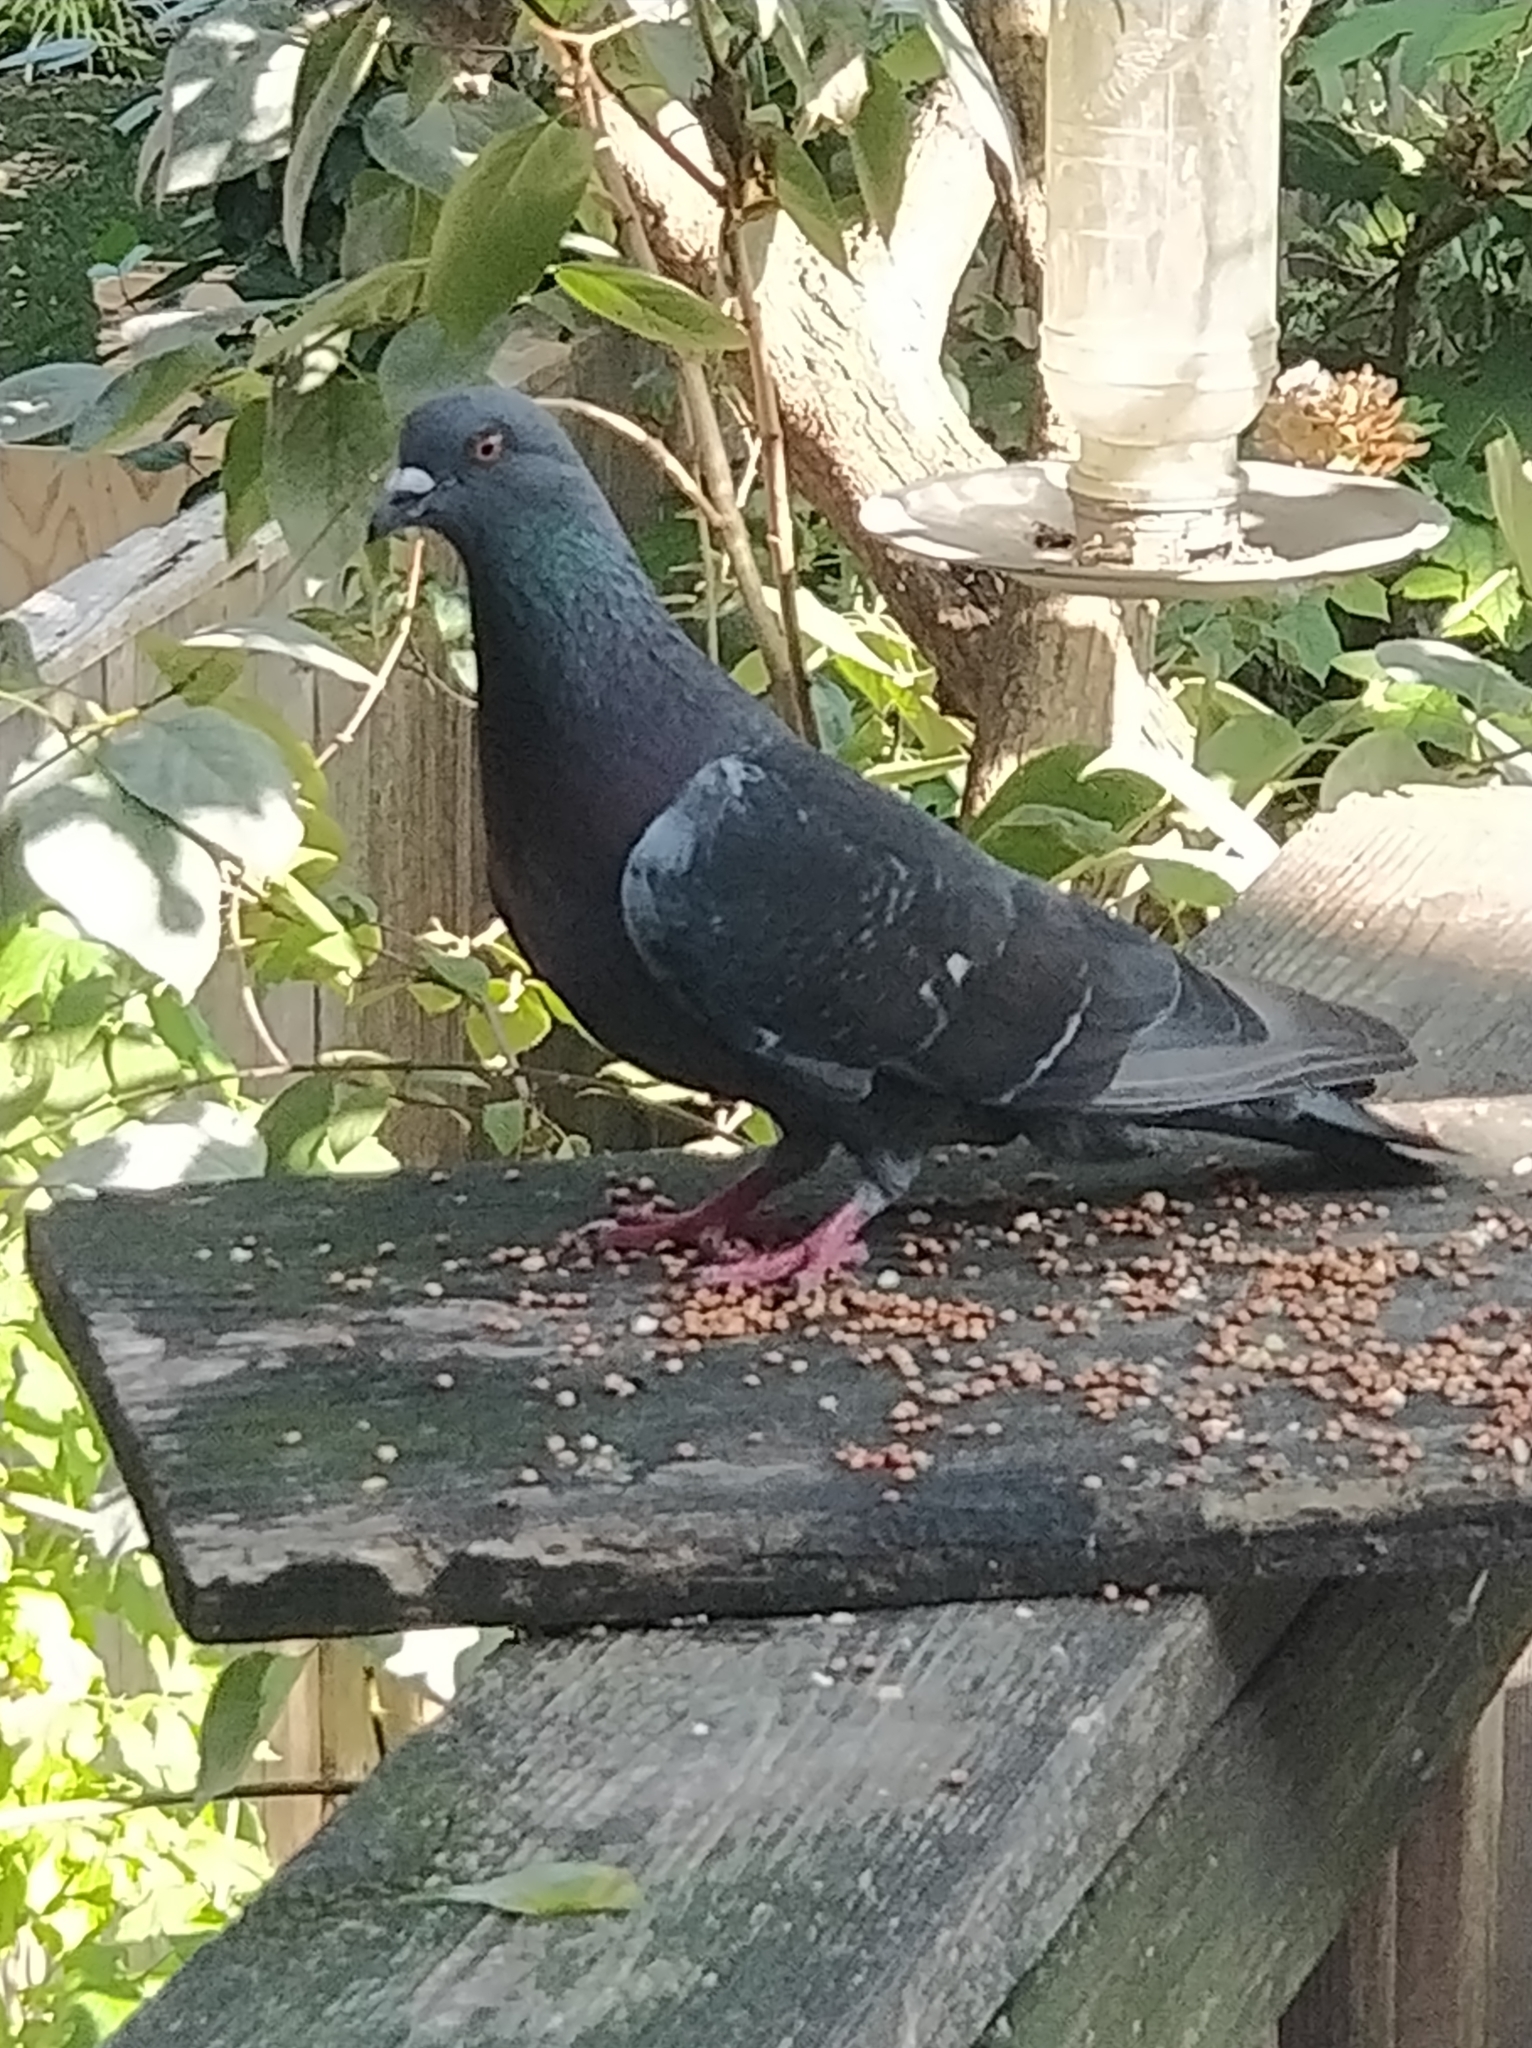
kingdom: Animalia
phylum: Chordata
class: Aves
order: Columbiformes
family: Columbidae
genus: Columba
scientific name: Columba livia
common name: Rock pigeon
